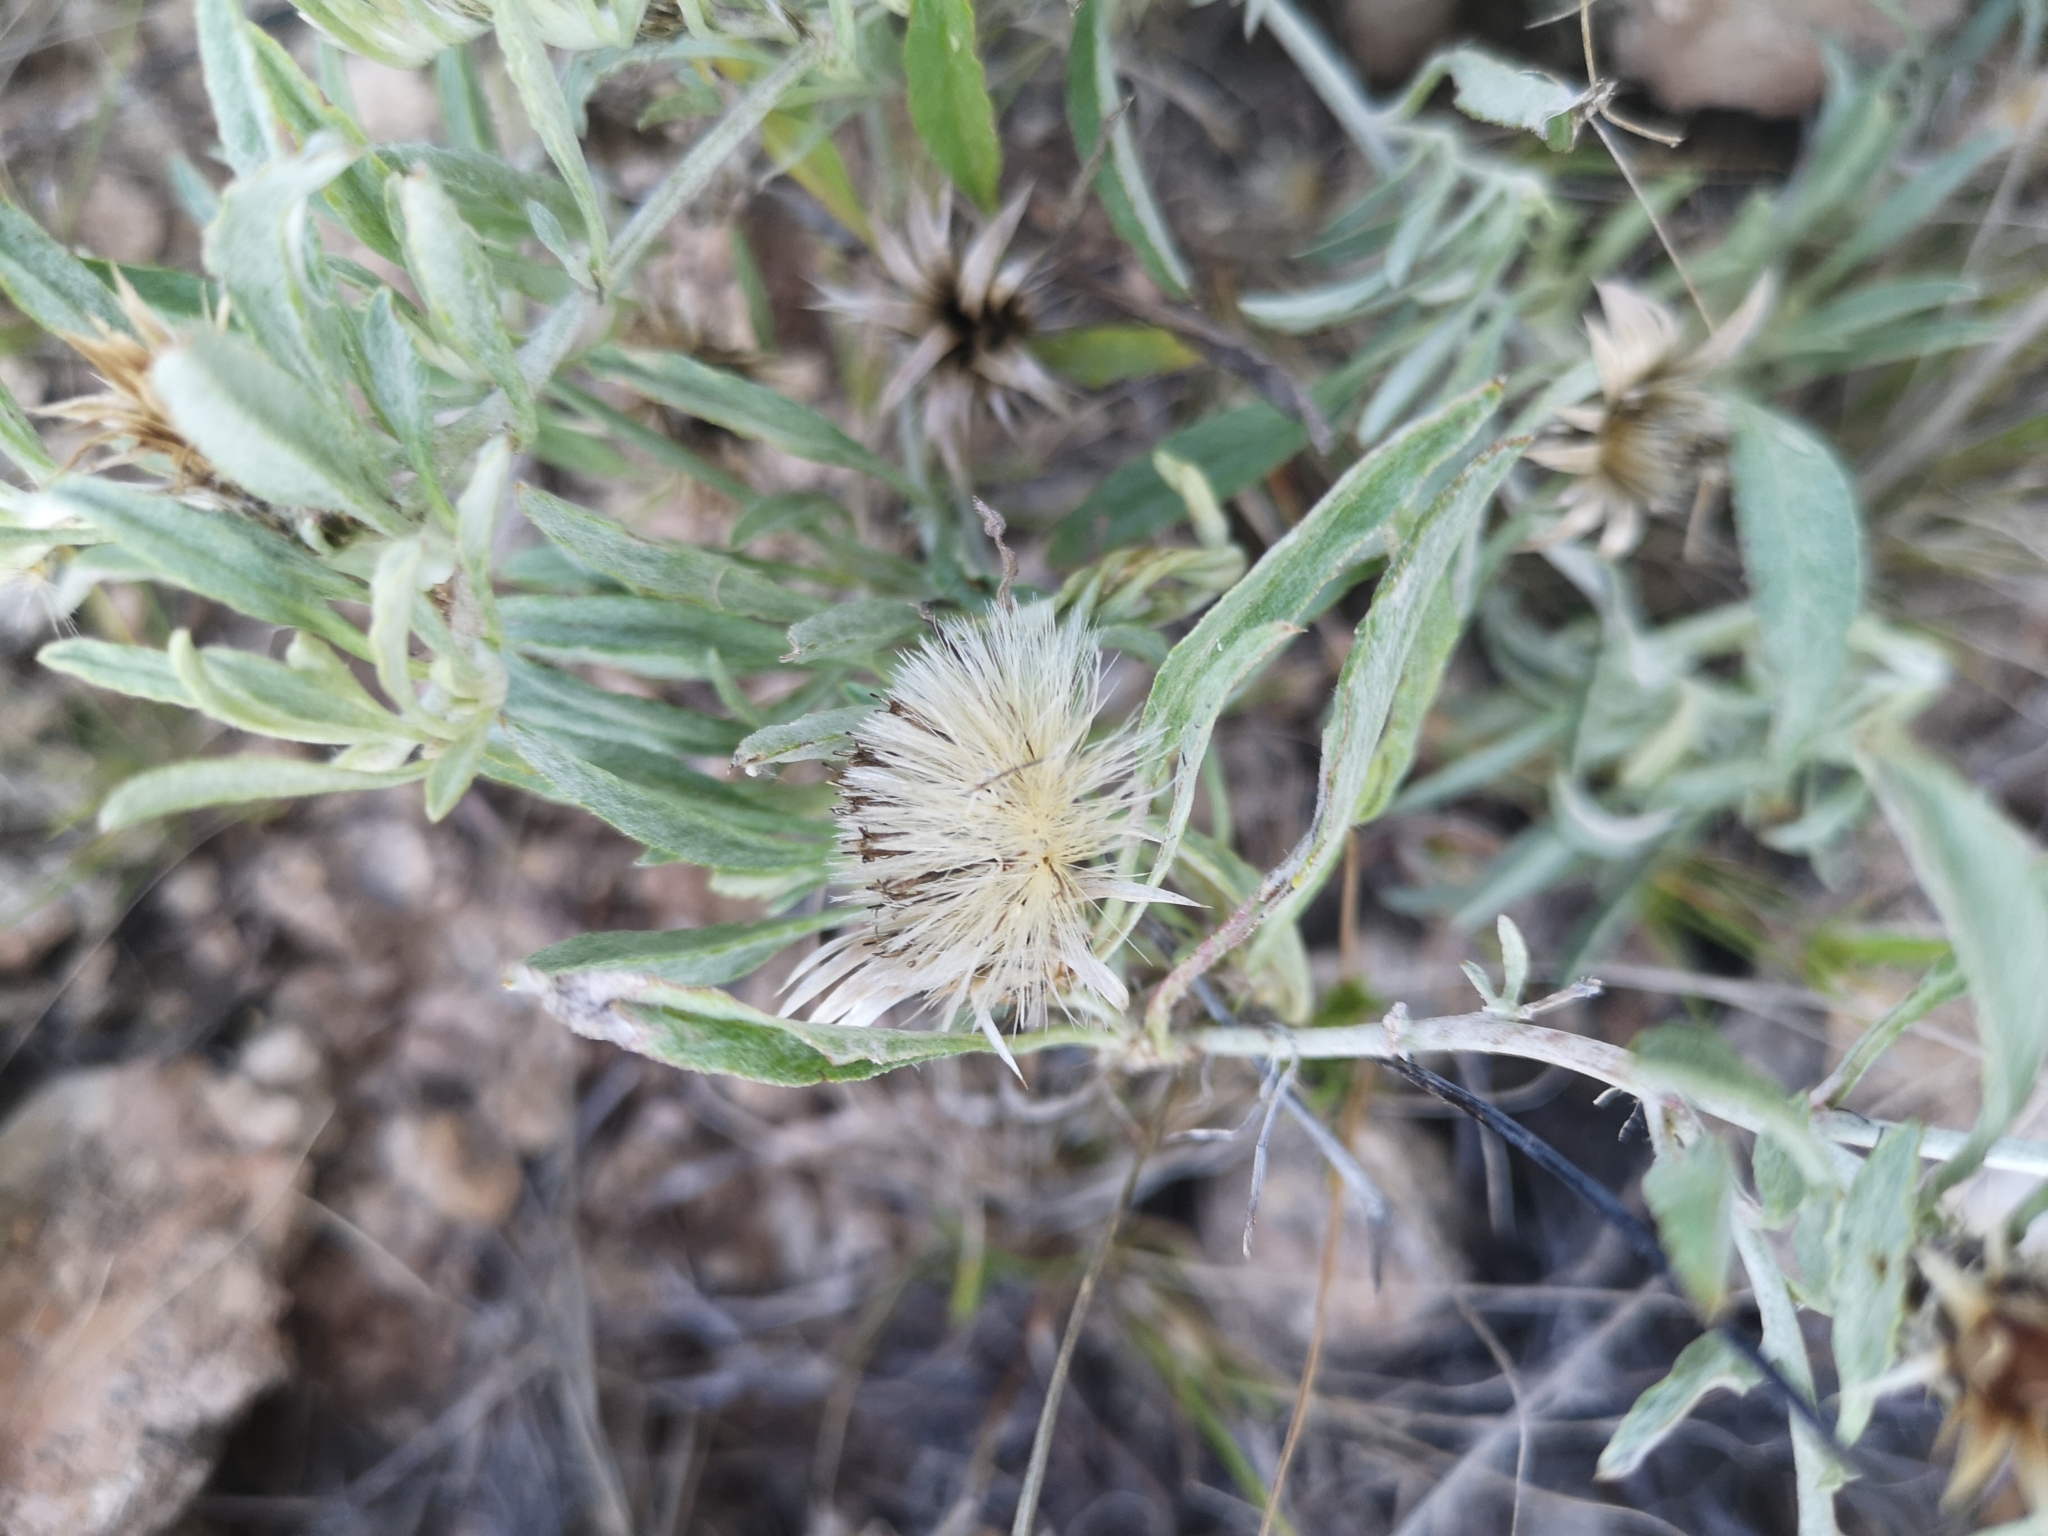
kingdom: Plantae
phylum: Tracheophyta
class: Magnoliopsida
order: Asterales
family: Asteraceae
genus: Dicoma
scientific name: Dicoma capensis
